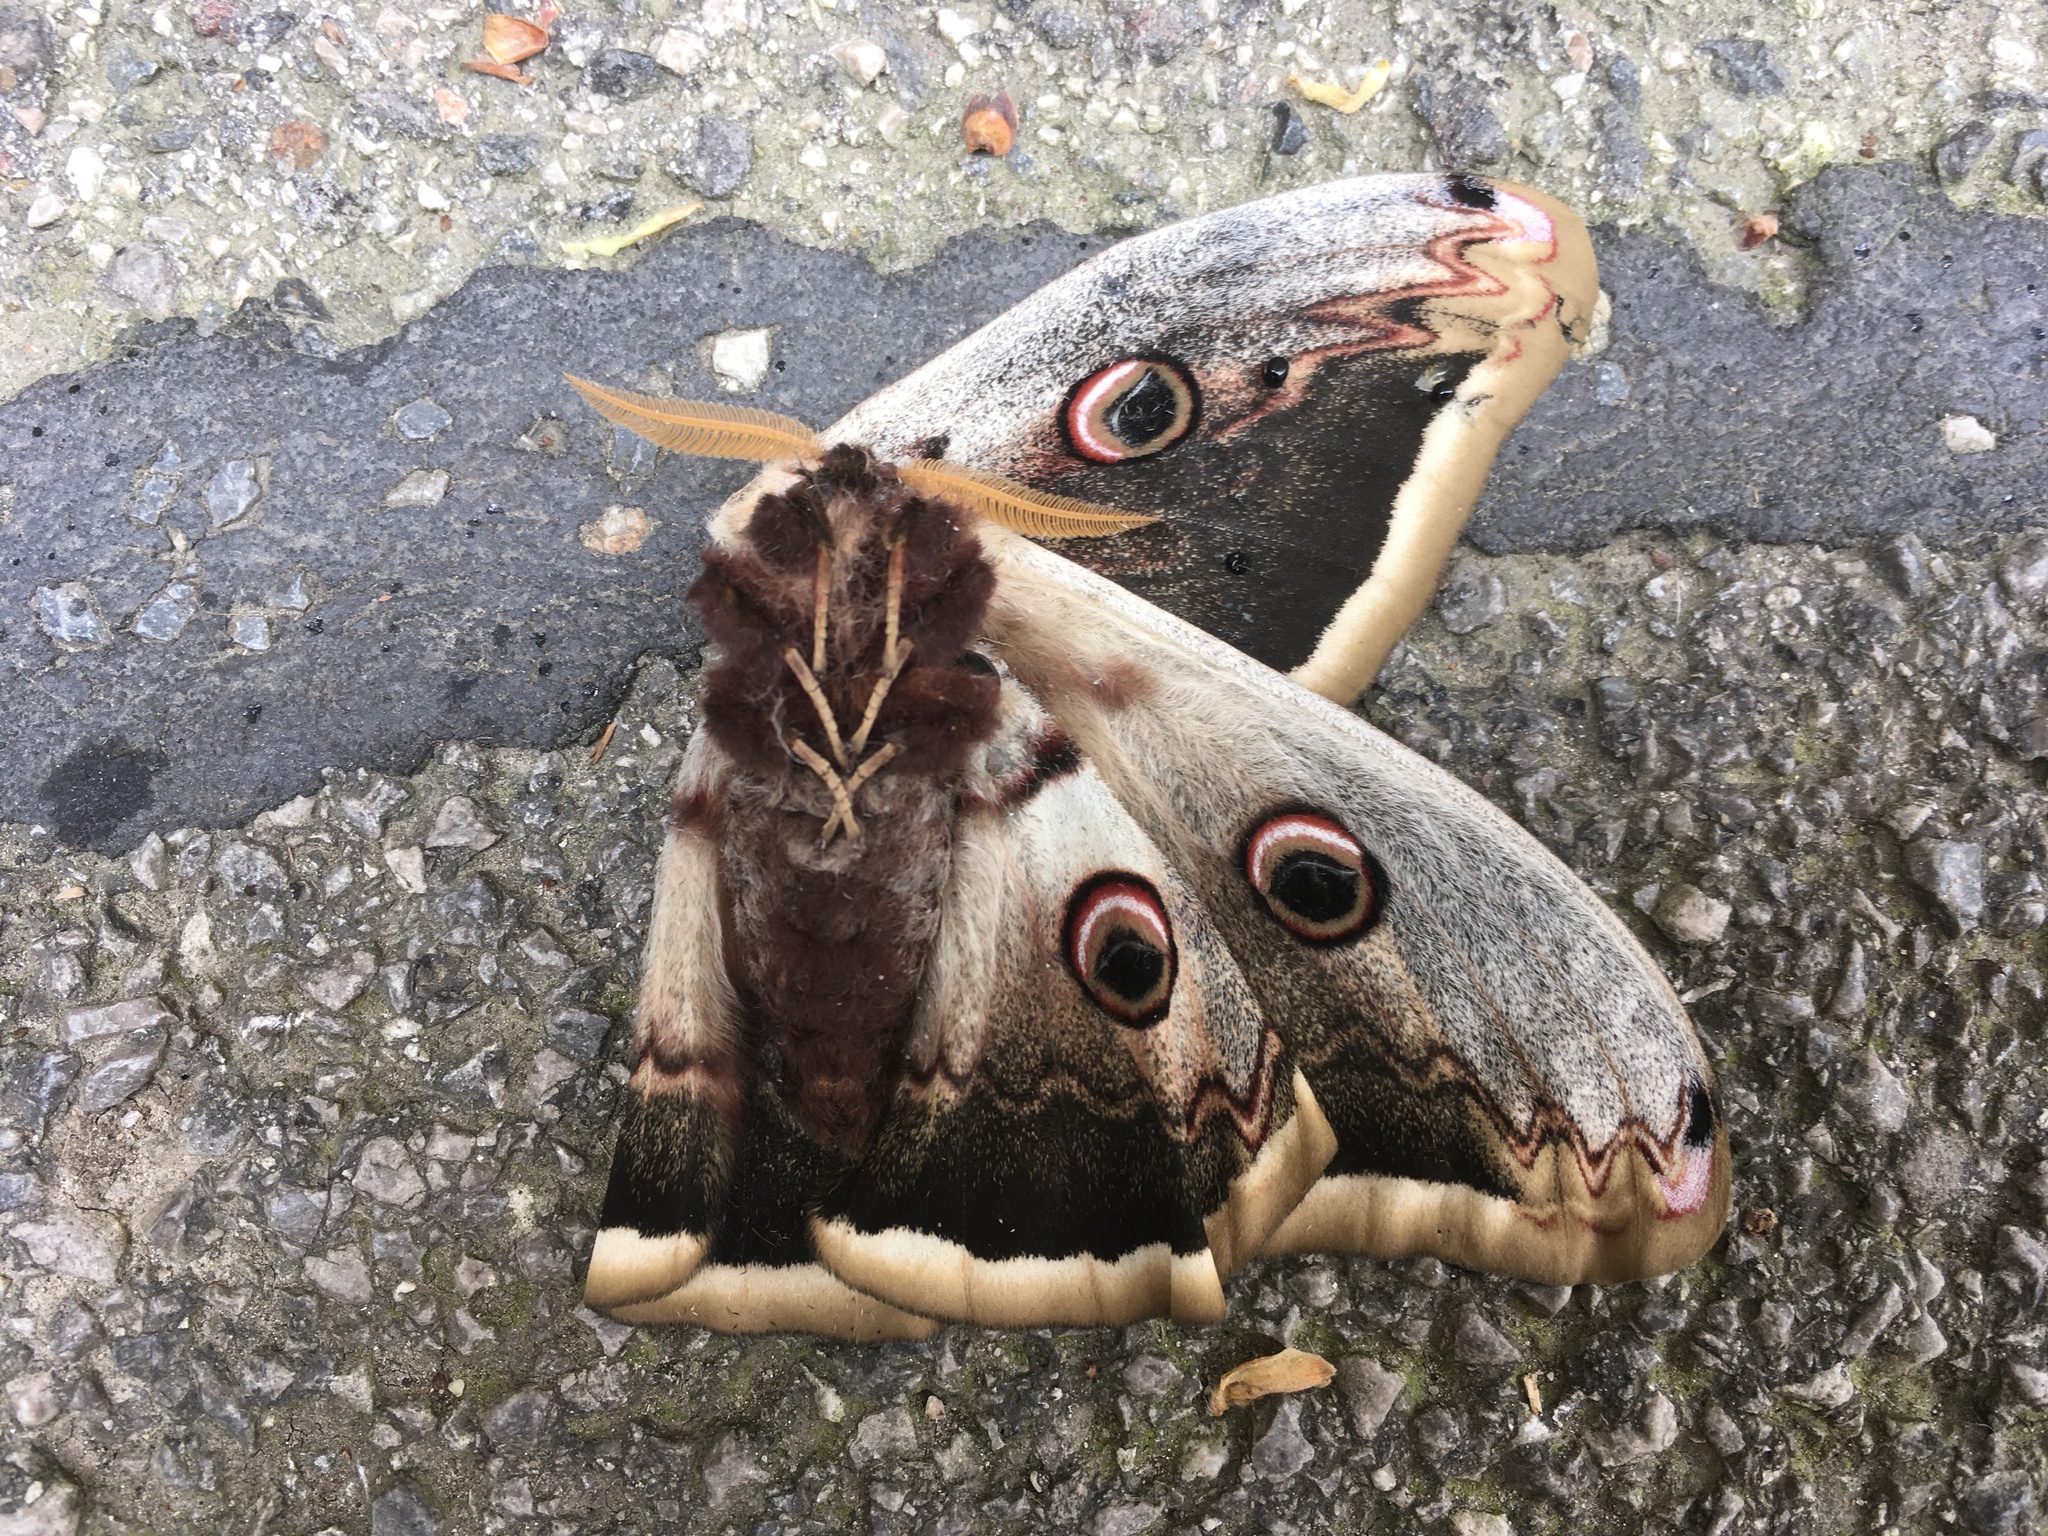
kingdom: Animalia
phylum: Arthropoda
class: Insecta
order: Lepidoptera
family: Saturniidae
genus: Saturnia
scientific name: Saturnia pyri
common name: Great peacock moth
